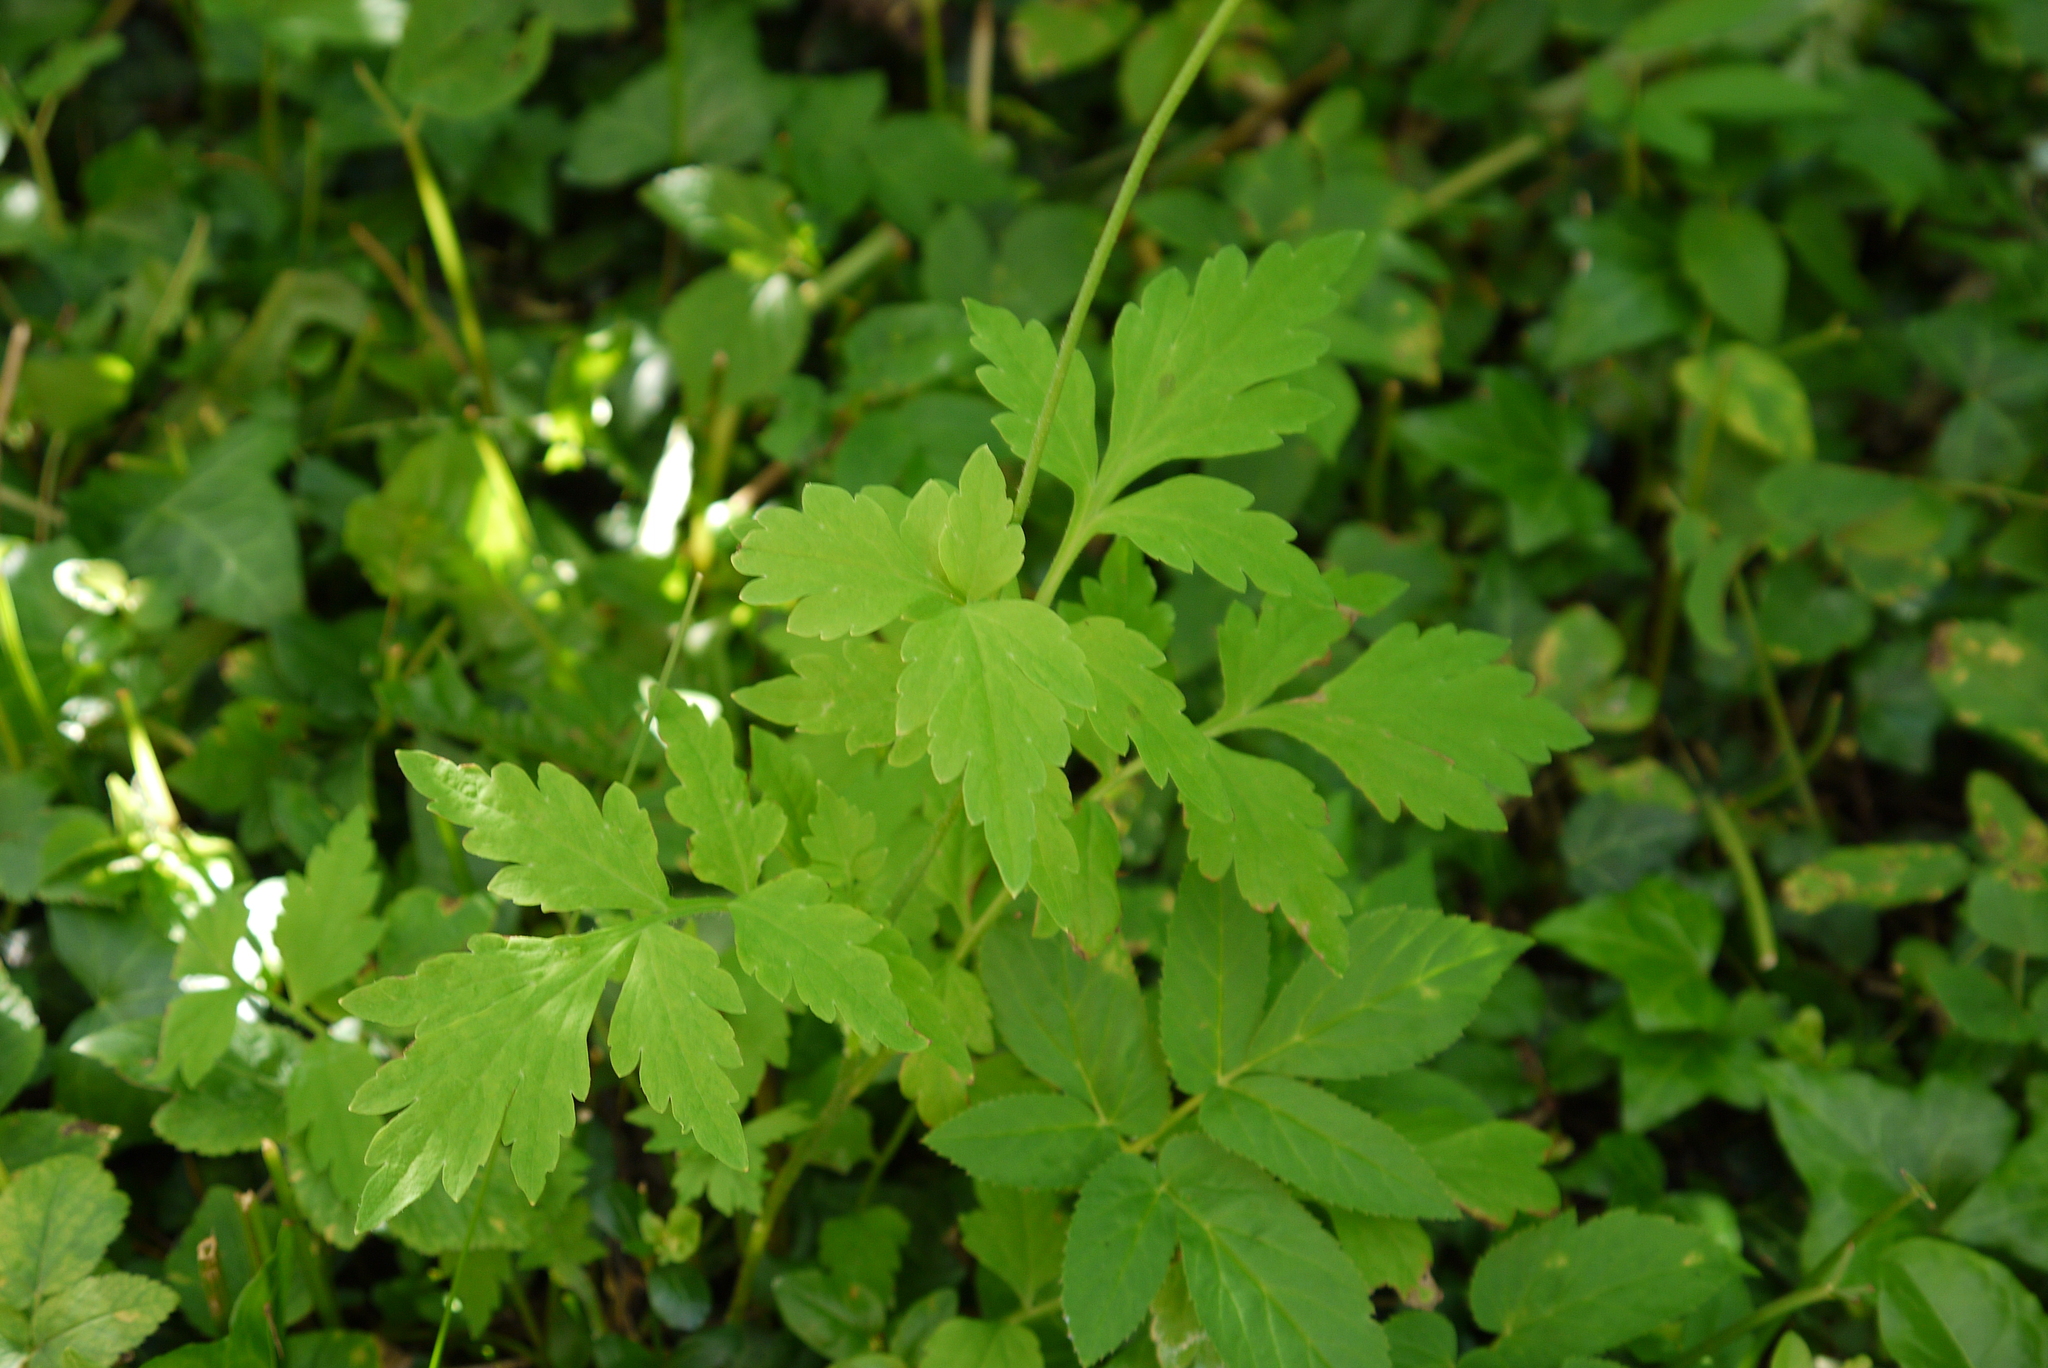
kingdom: Plantae
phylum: Tracheophyta
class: Magnoliopsida
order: Ranunculales
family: Papaveraceae
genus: Papaver
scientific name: Papaver cambricum
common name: Poppy
